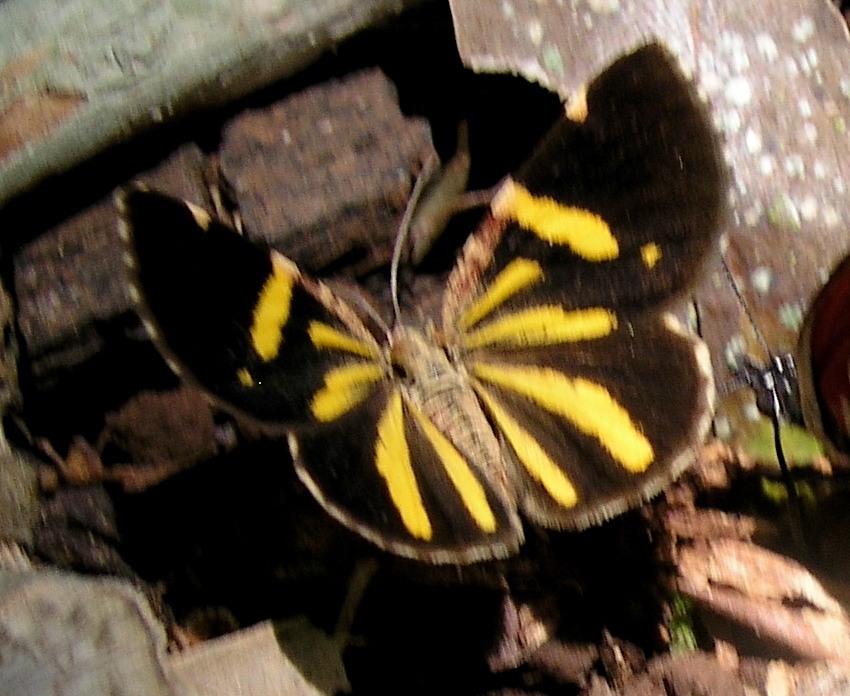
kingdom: Animalia
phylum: Arthropoda
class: Insecta
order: Lepidoptera
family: Geometridae
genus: Heterusia
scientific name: Heterusia quadruplicaria
